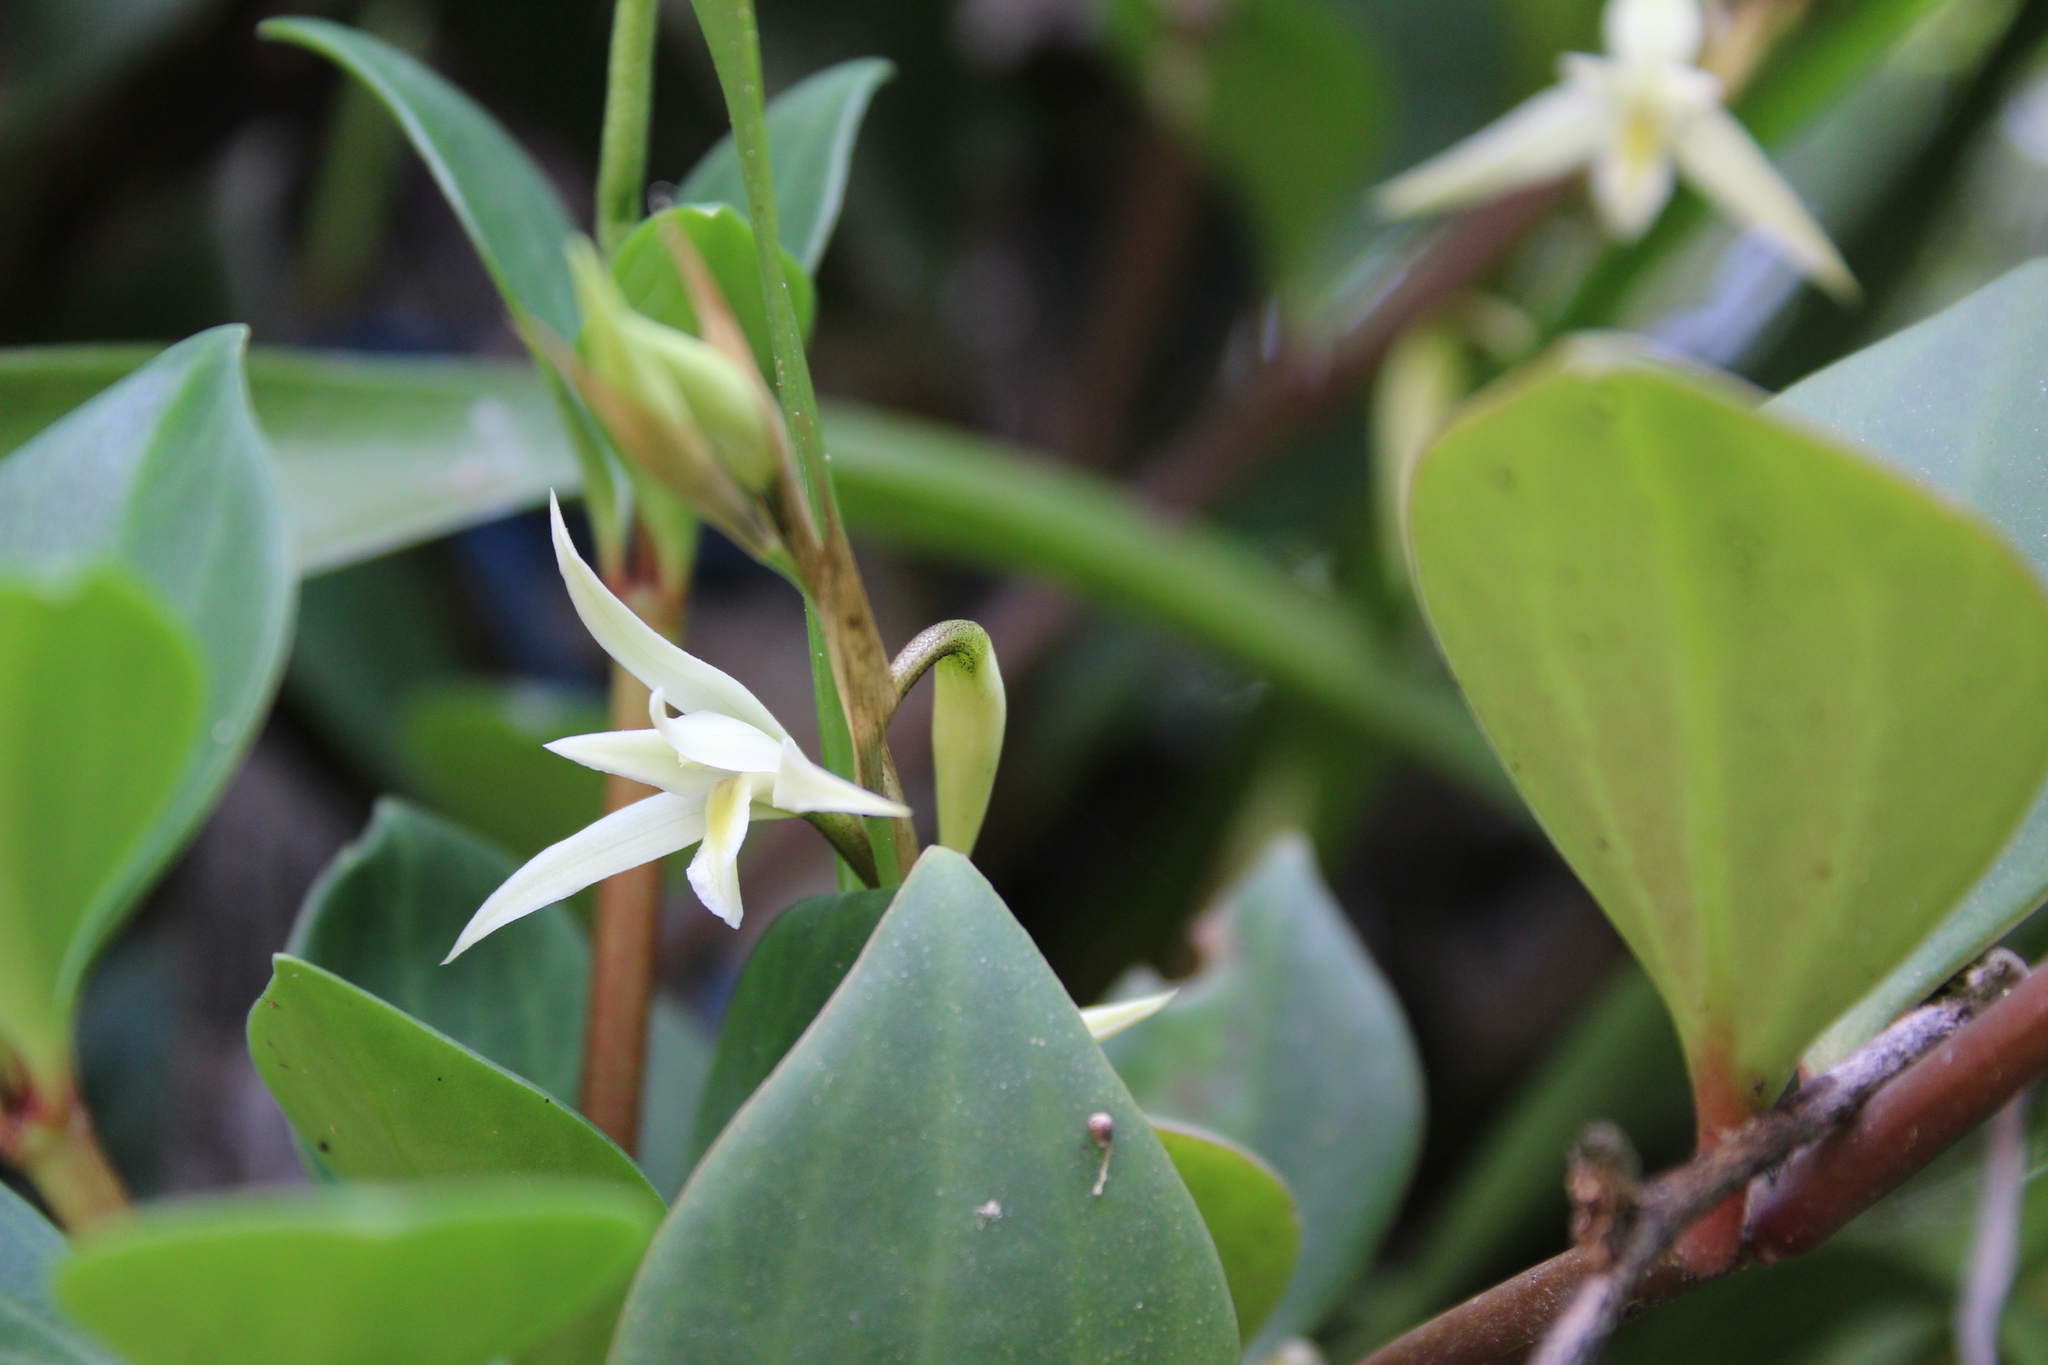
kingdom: Plantae
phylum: Tracheophyta
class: Liliopsida
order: Asparagales
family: Orchidaceae
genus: Nidema
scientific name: Nidema boothii
